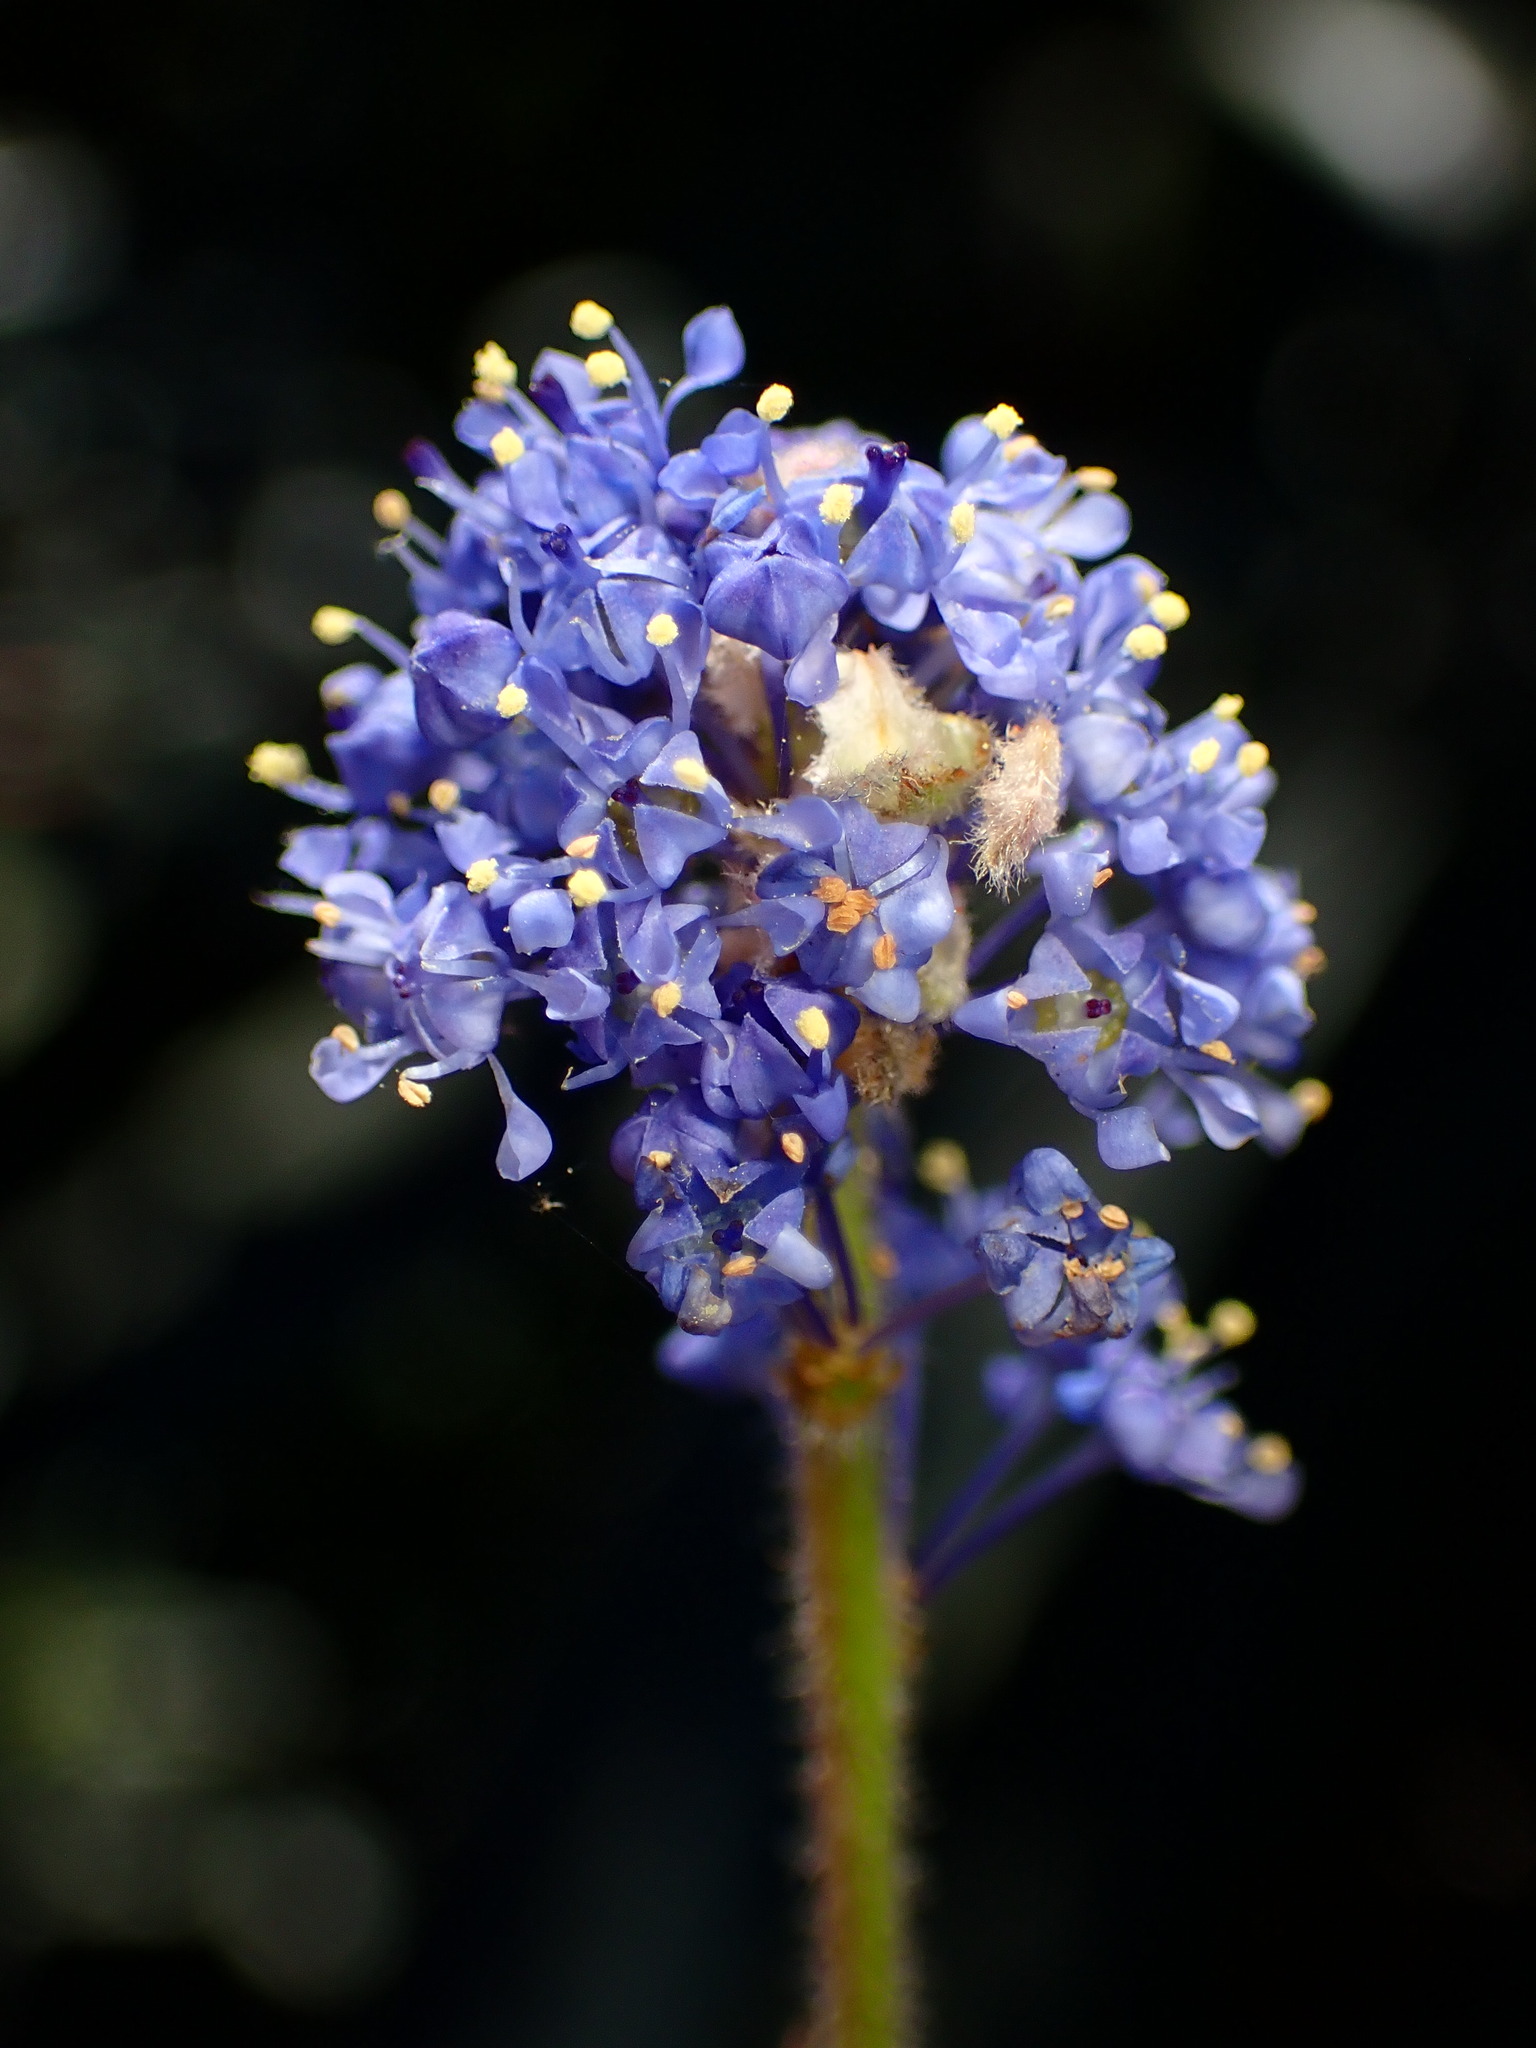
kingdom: Plantae
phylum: Tracheophyta
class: Magnoliopsida
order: Rosales
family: Rhamnaceae
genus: Ceanothus
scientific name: Ceanothus papillosus
